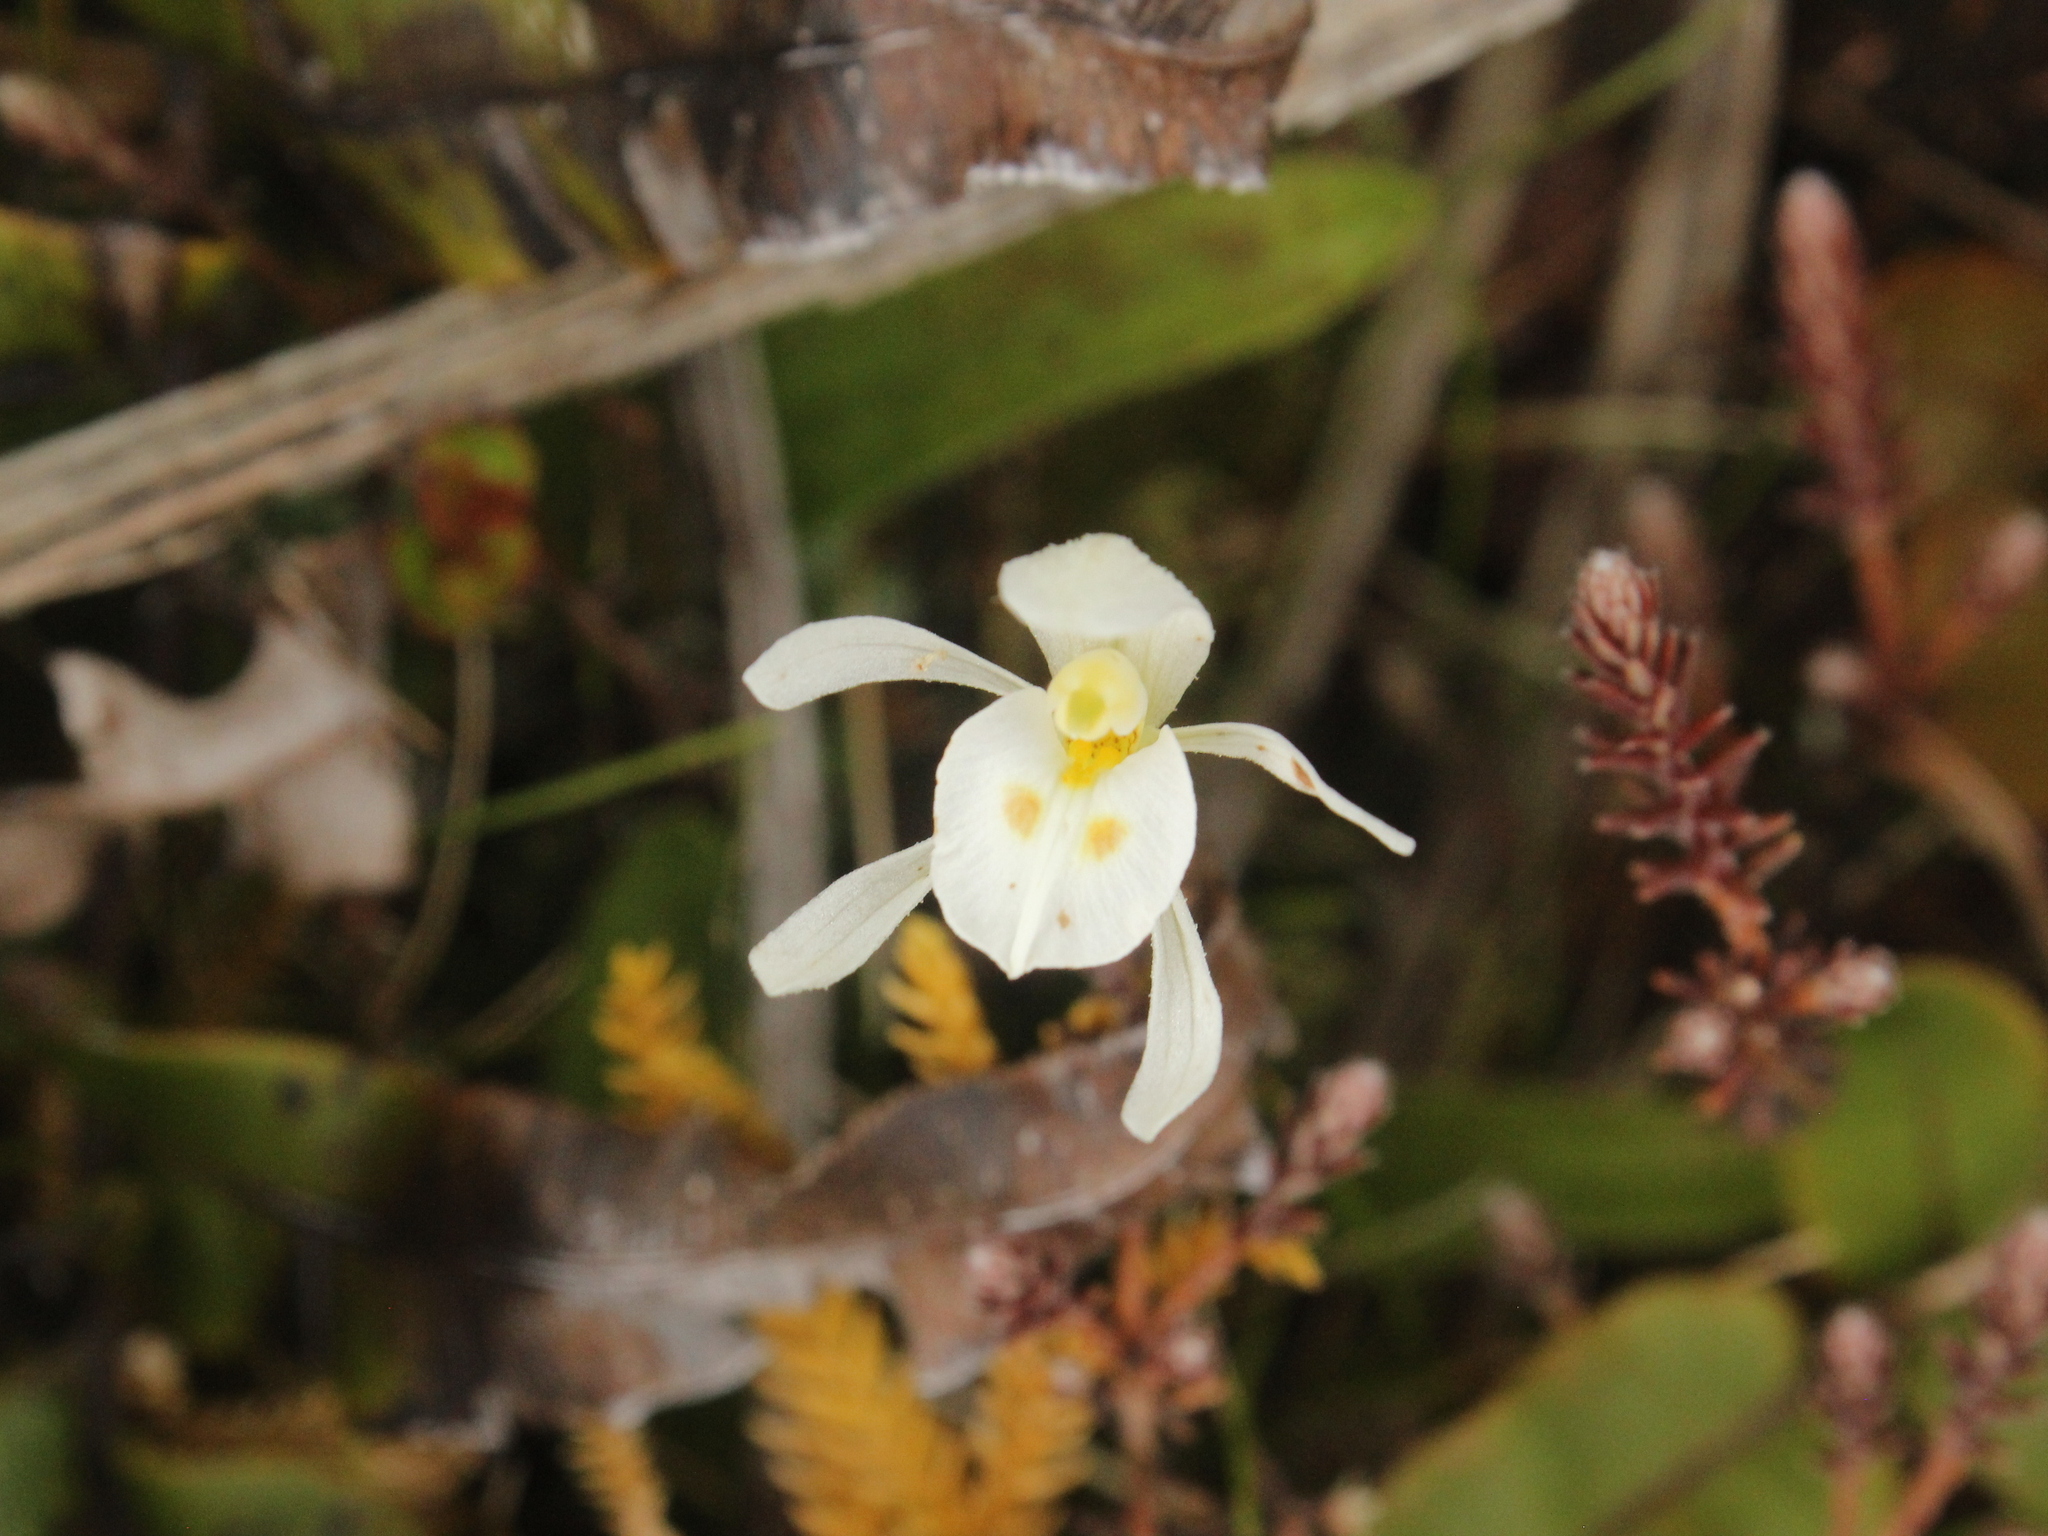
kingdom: Plantae
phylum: Tracheophyta
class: Liliopsida
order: Asparagales
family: Orchidaceae
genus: Aporostylis
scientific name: Aporostylis bifolia
